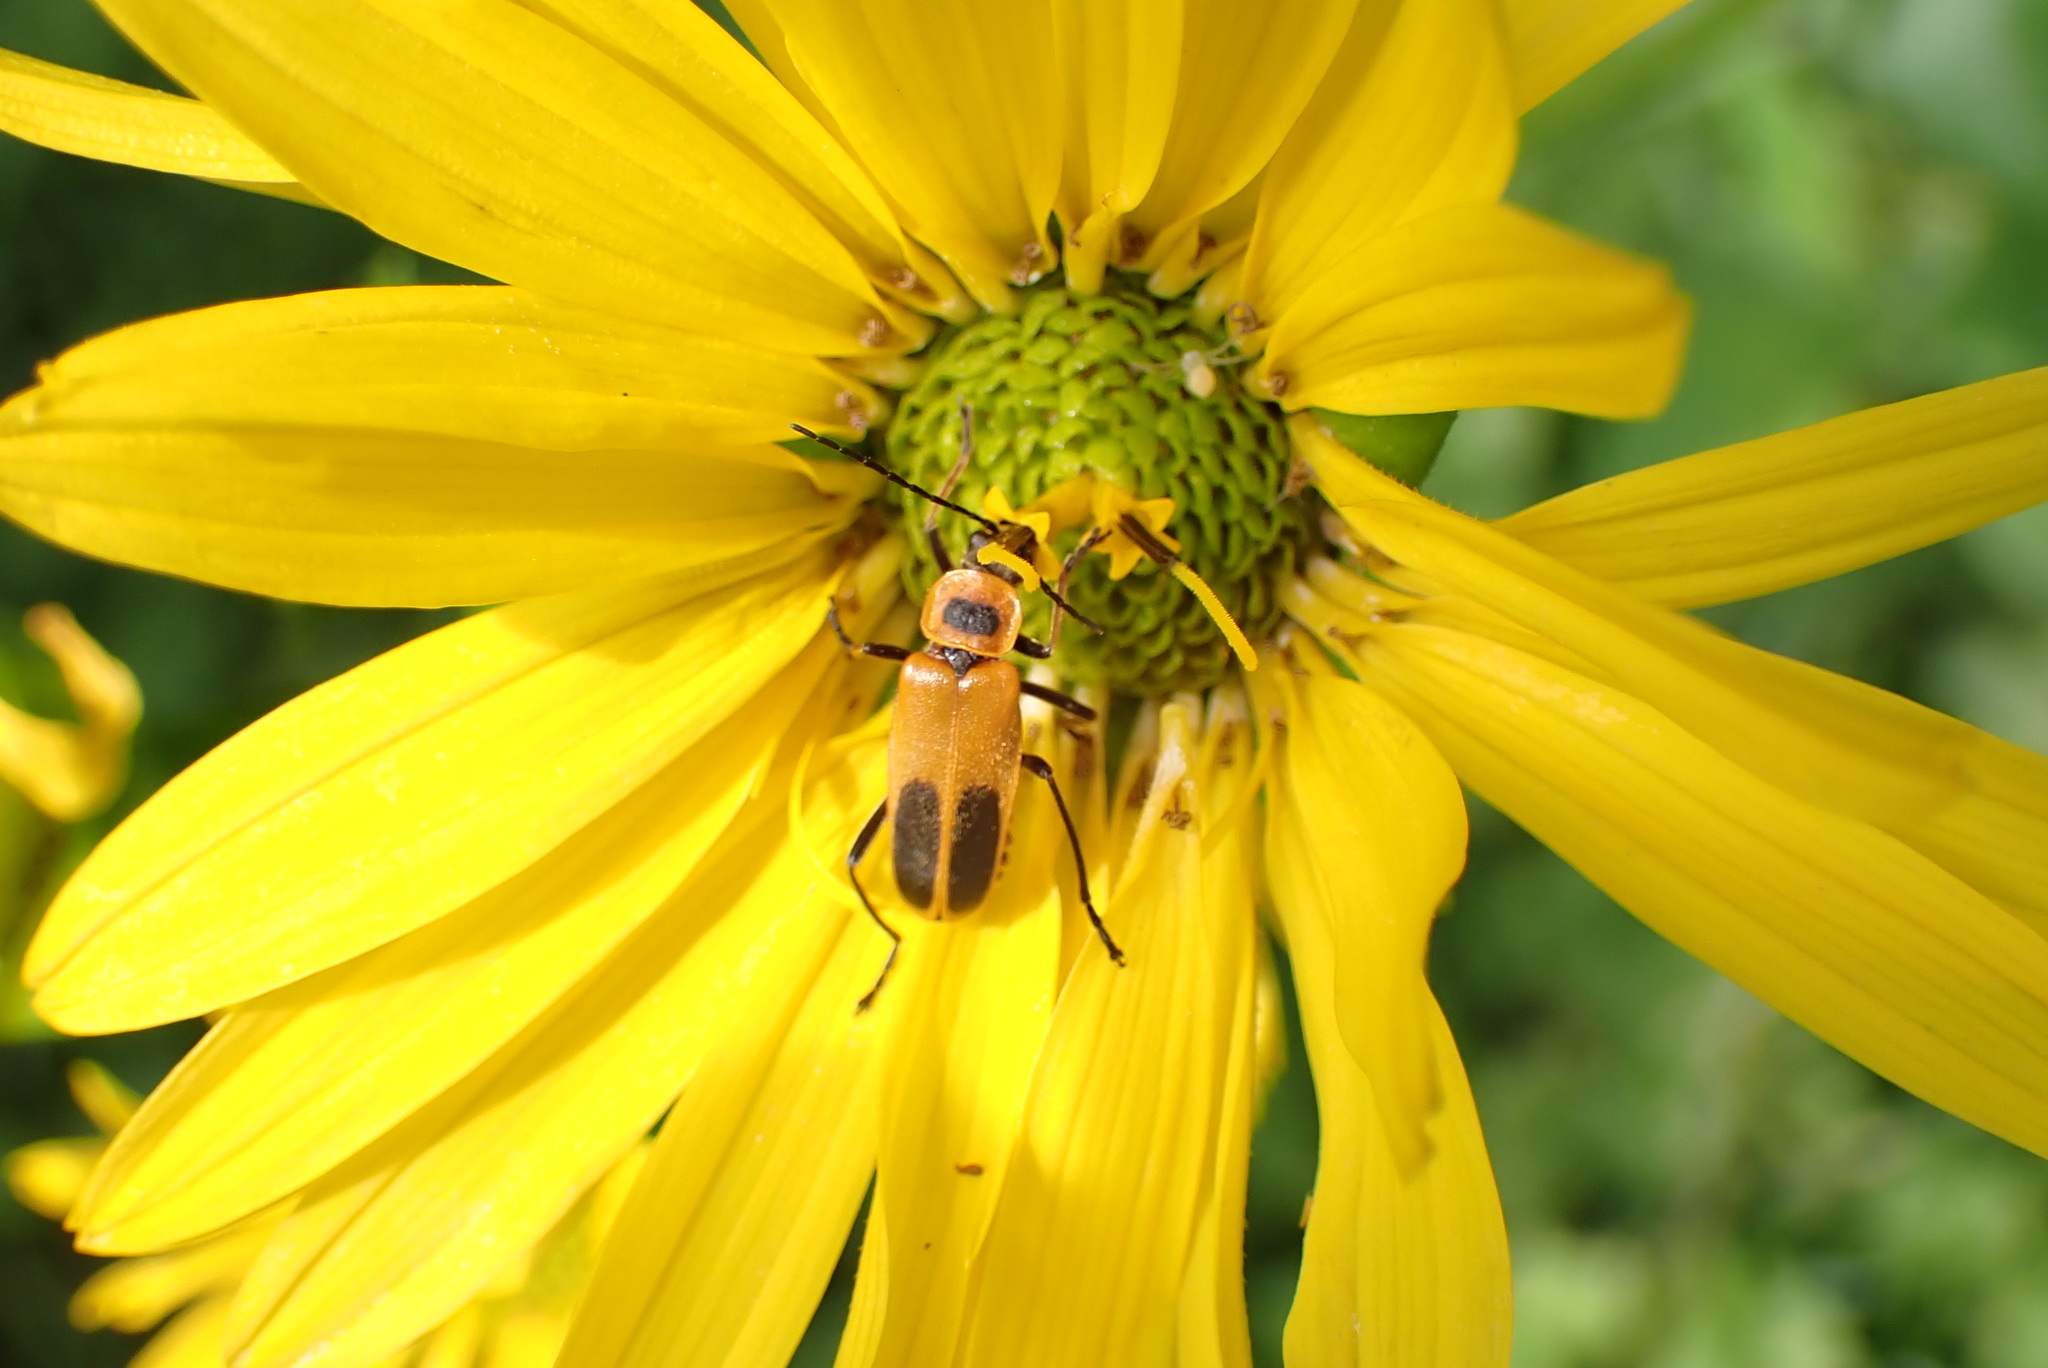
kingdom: Animalia
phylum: Arthropoda
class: Insecta
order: Coleoptera
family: Cantharidae
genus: Chauliognathus
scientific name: Chauliognathus pensylvanicus
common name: Goldenrod soldier beetle
